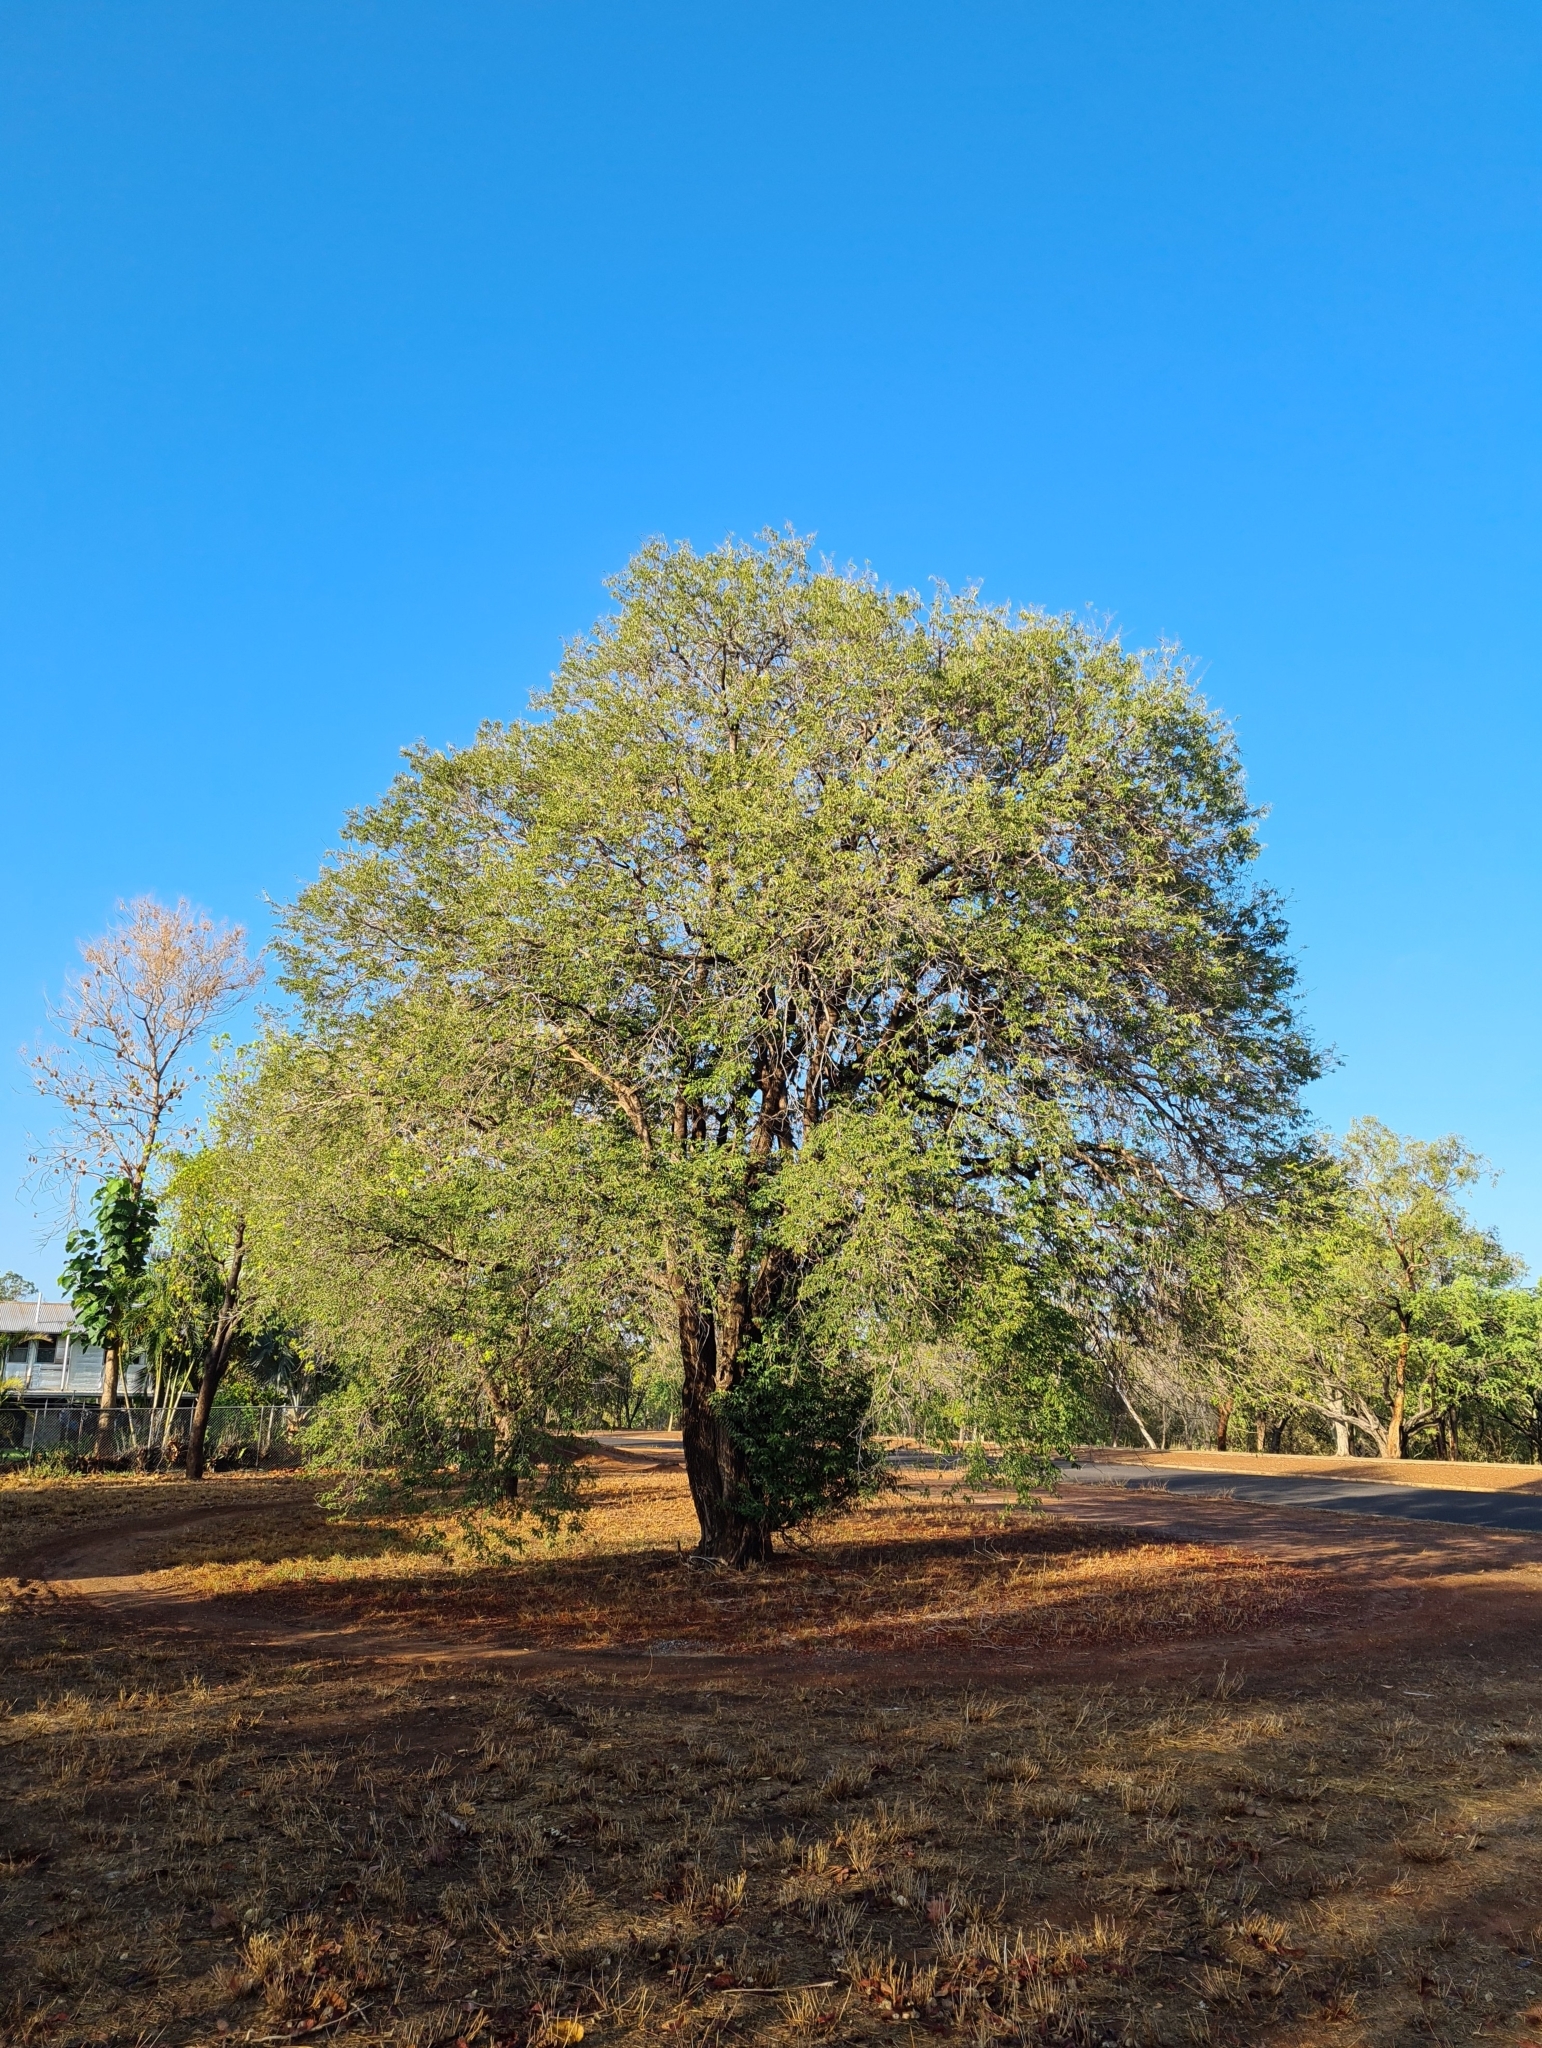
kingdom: Plantae
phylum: Tracheophyta
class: Magnoliopsida
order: Fabales
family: Fabaceae
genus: Tamarindus
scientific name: Tamarindus indica
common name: Tamarind
